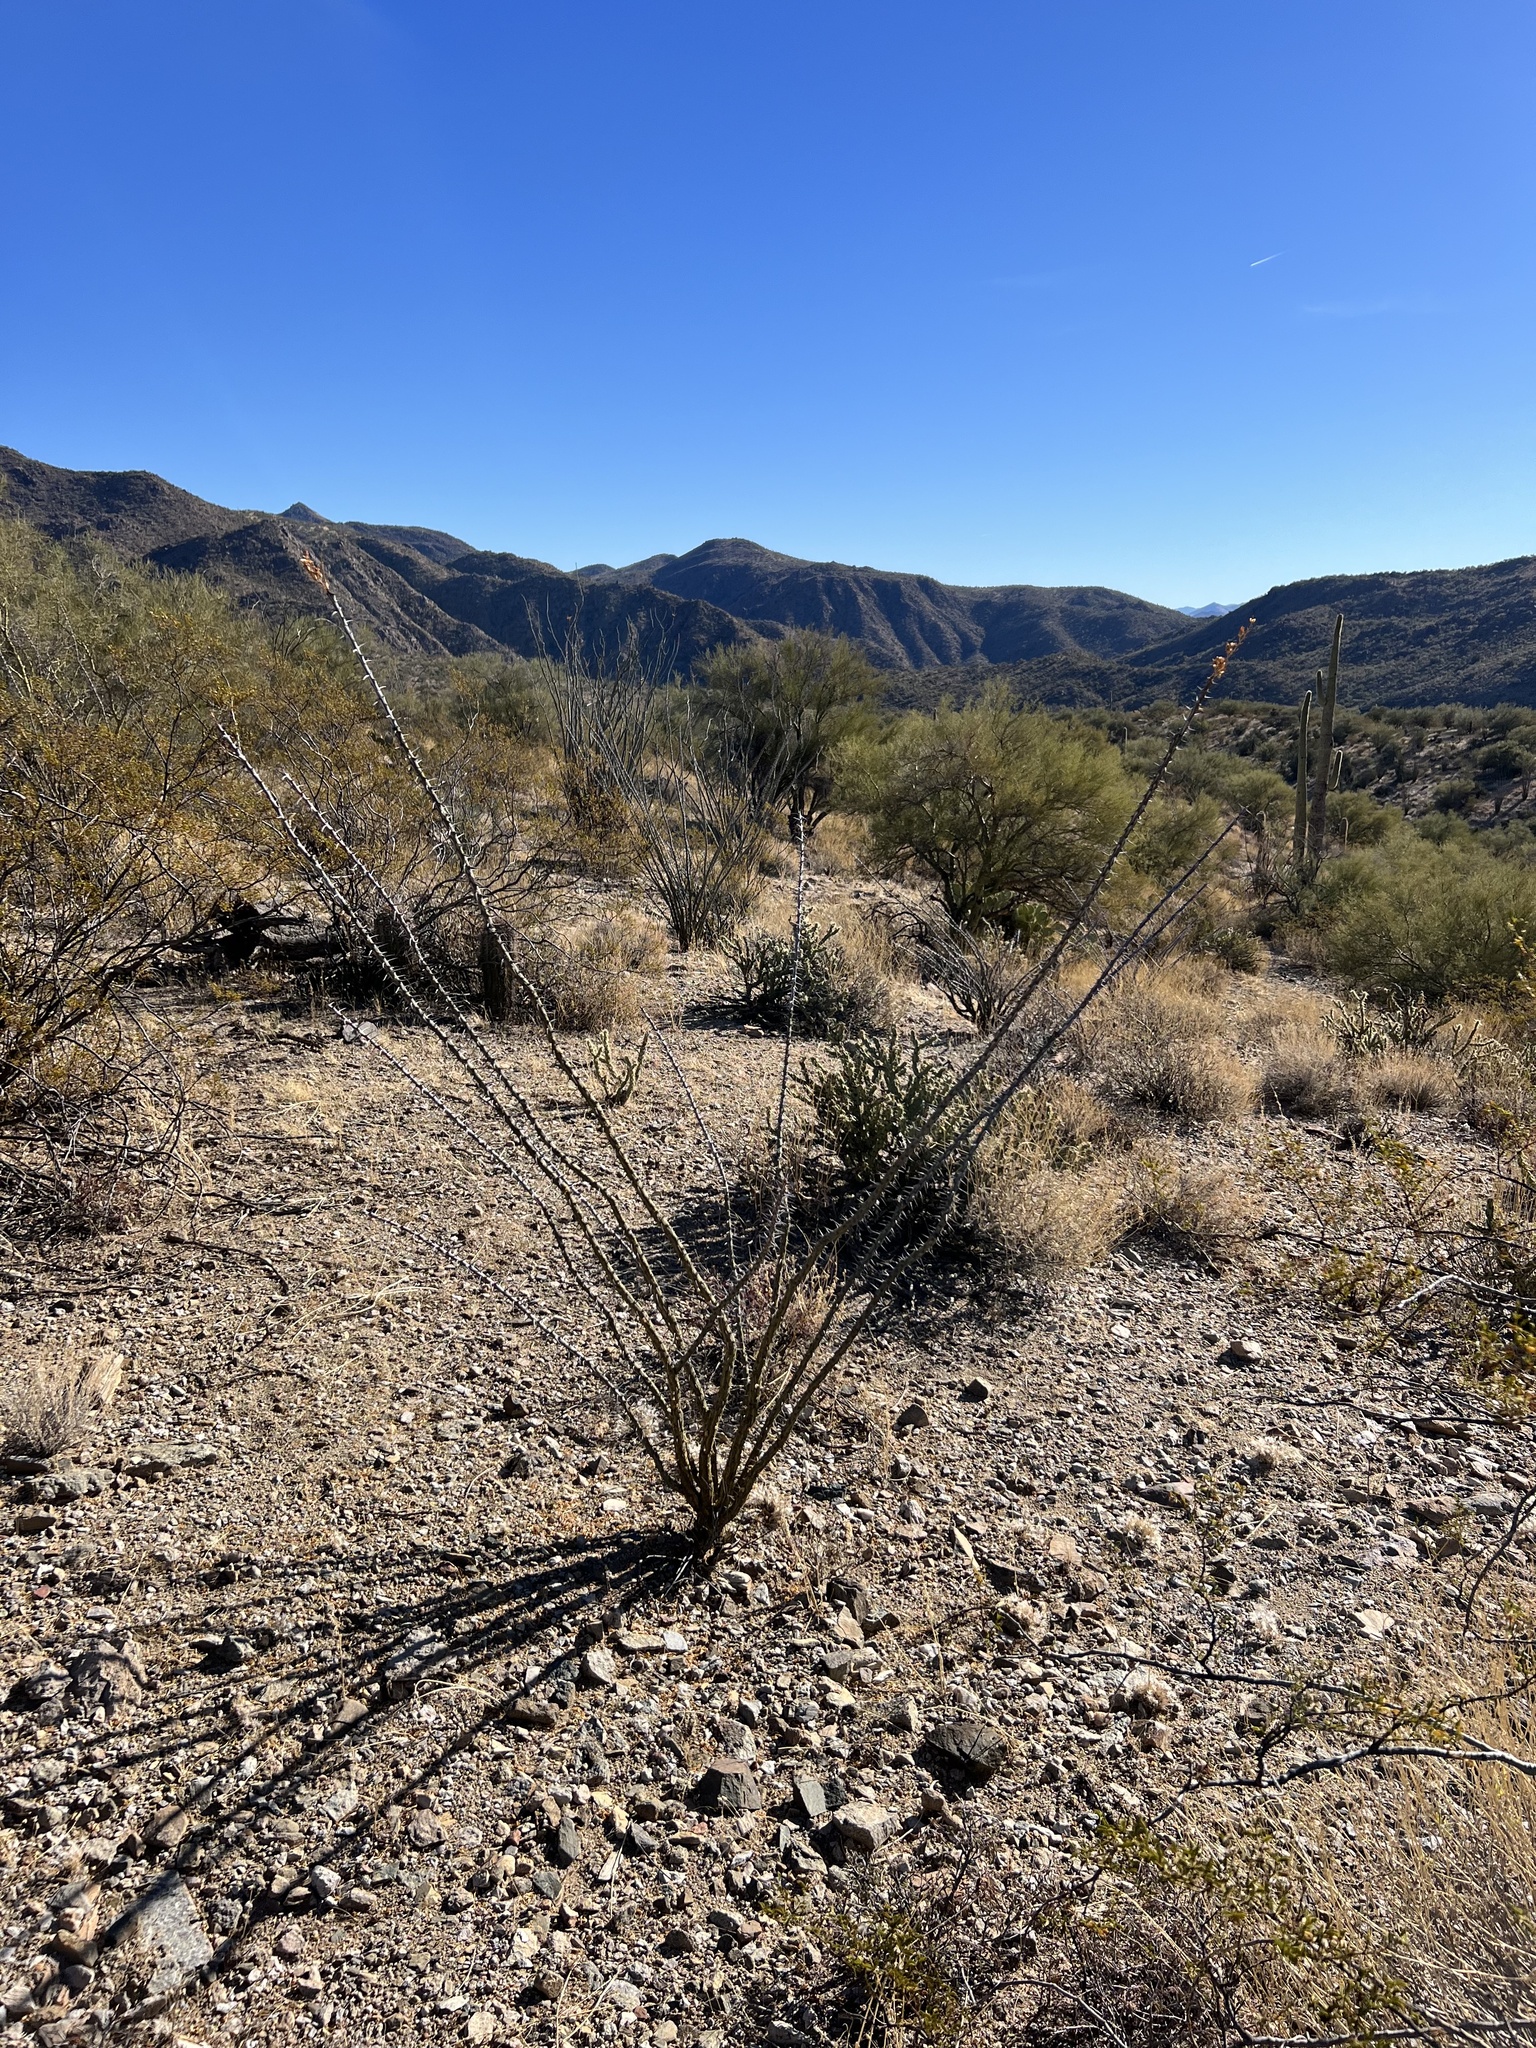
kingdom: Plantae
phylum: Tracheophyta
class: Magnoliopsida
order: Ericales
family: Fouquieriaceae
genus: Fouquieria
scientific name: Fouquieria splendens
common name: Vine-cactus
